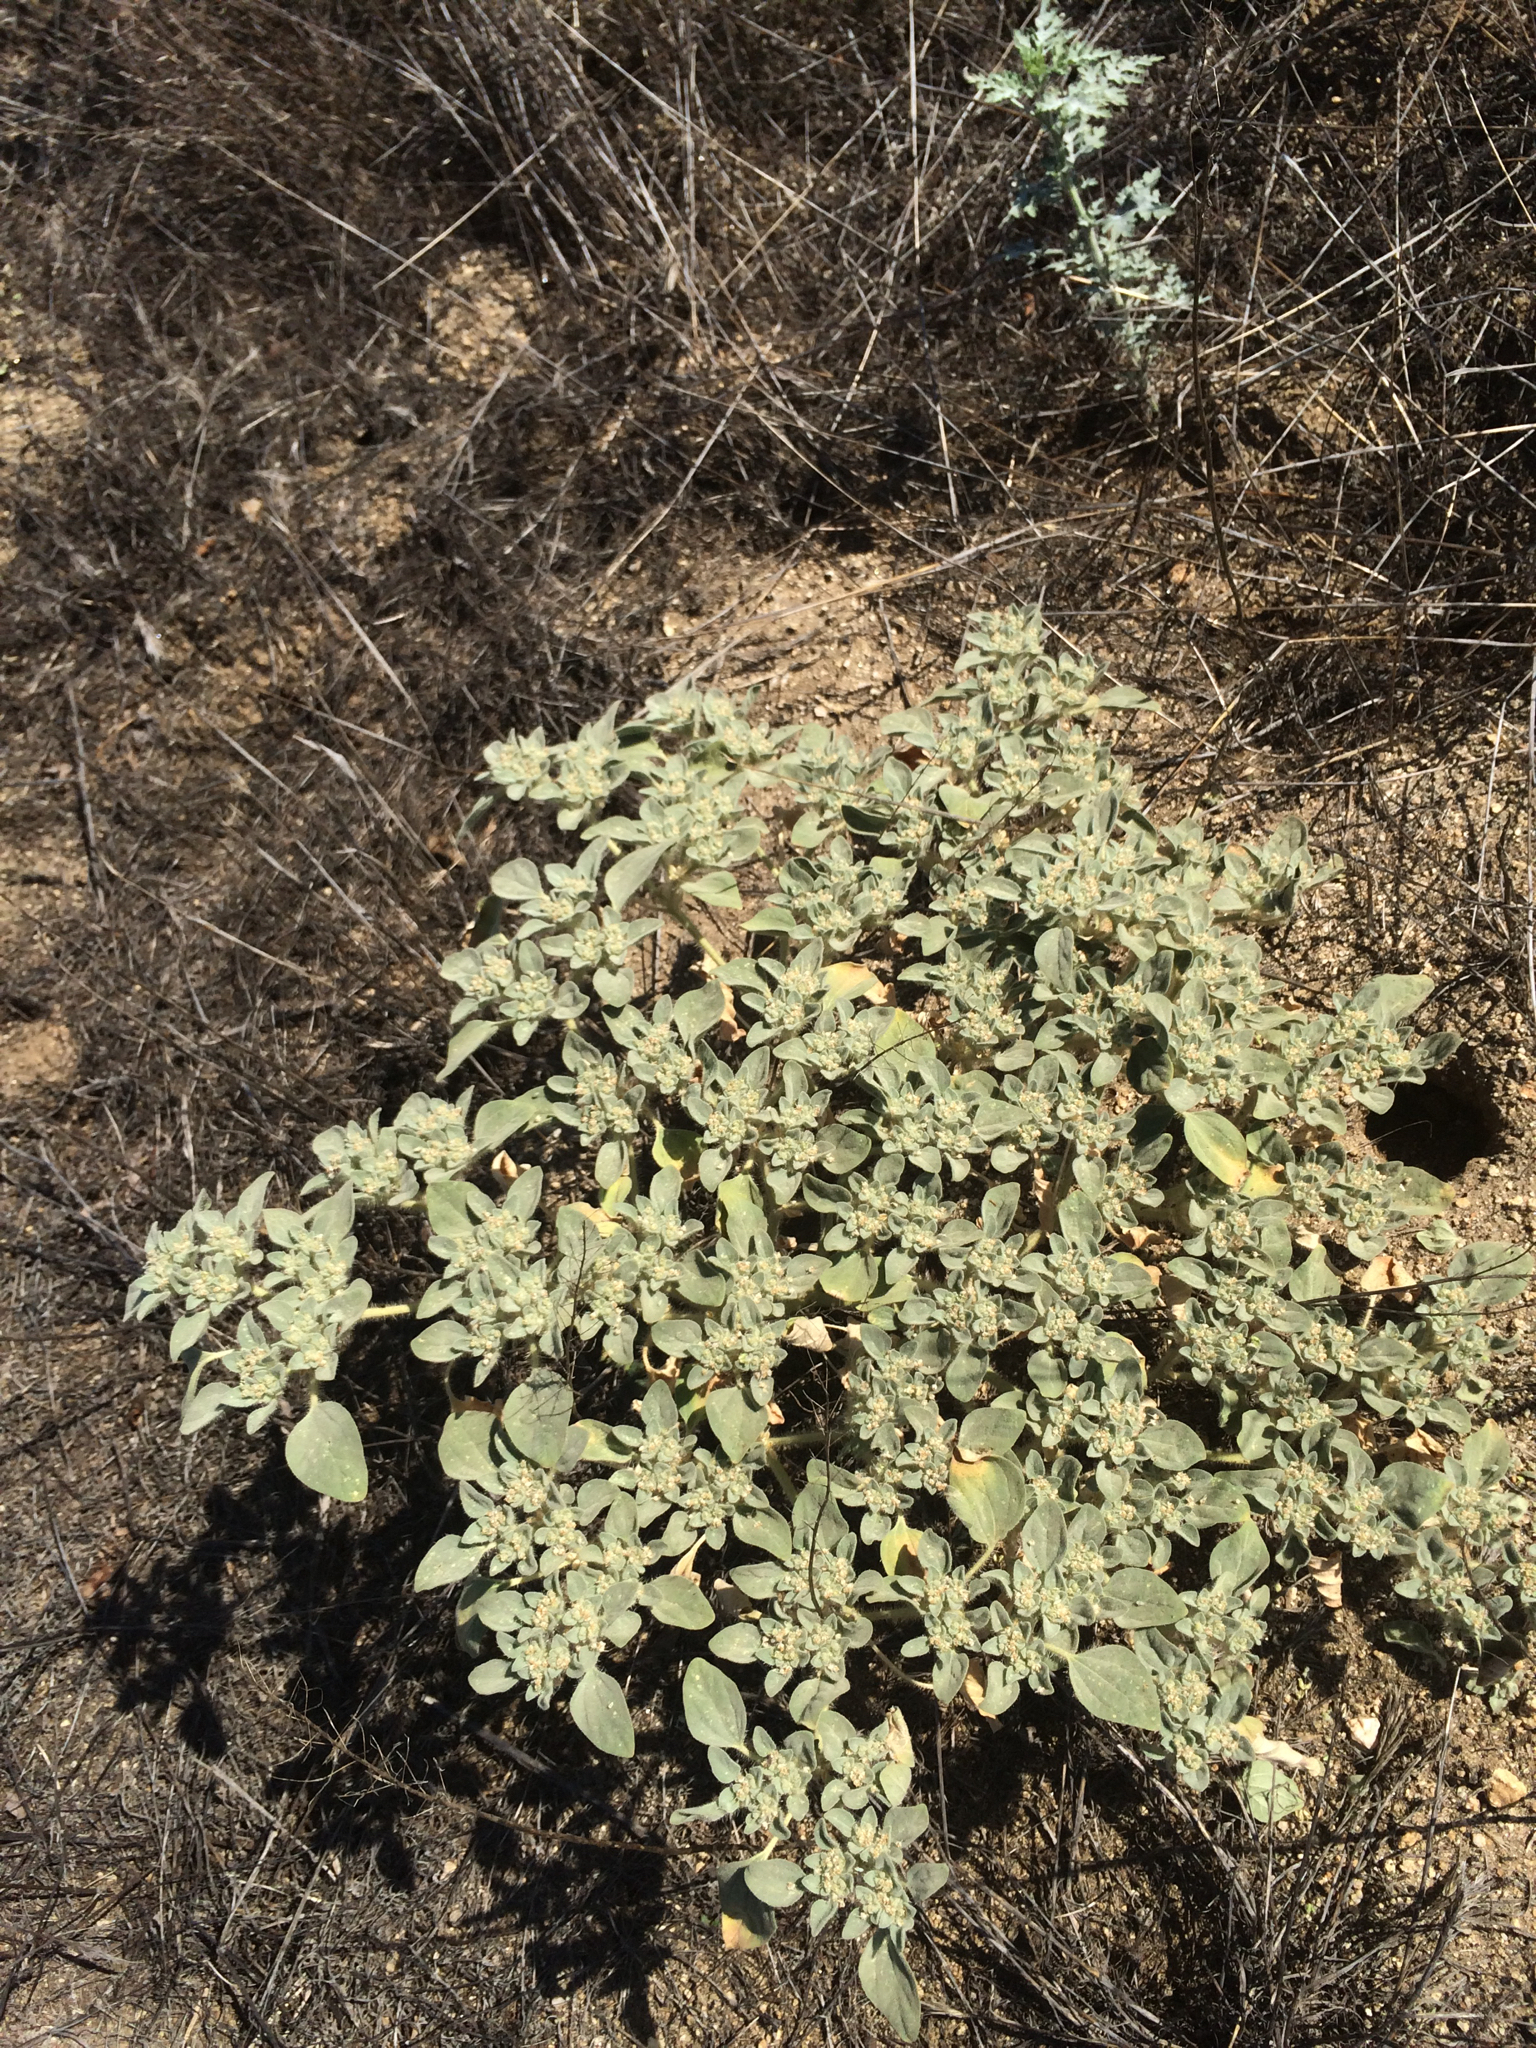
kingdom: Plantae
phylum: Tracheophyta
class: Magnoliopsida
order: Malpighiales
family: Euphorbiaceae
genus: Croton
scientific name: Croton setiger
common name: Dove weed
